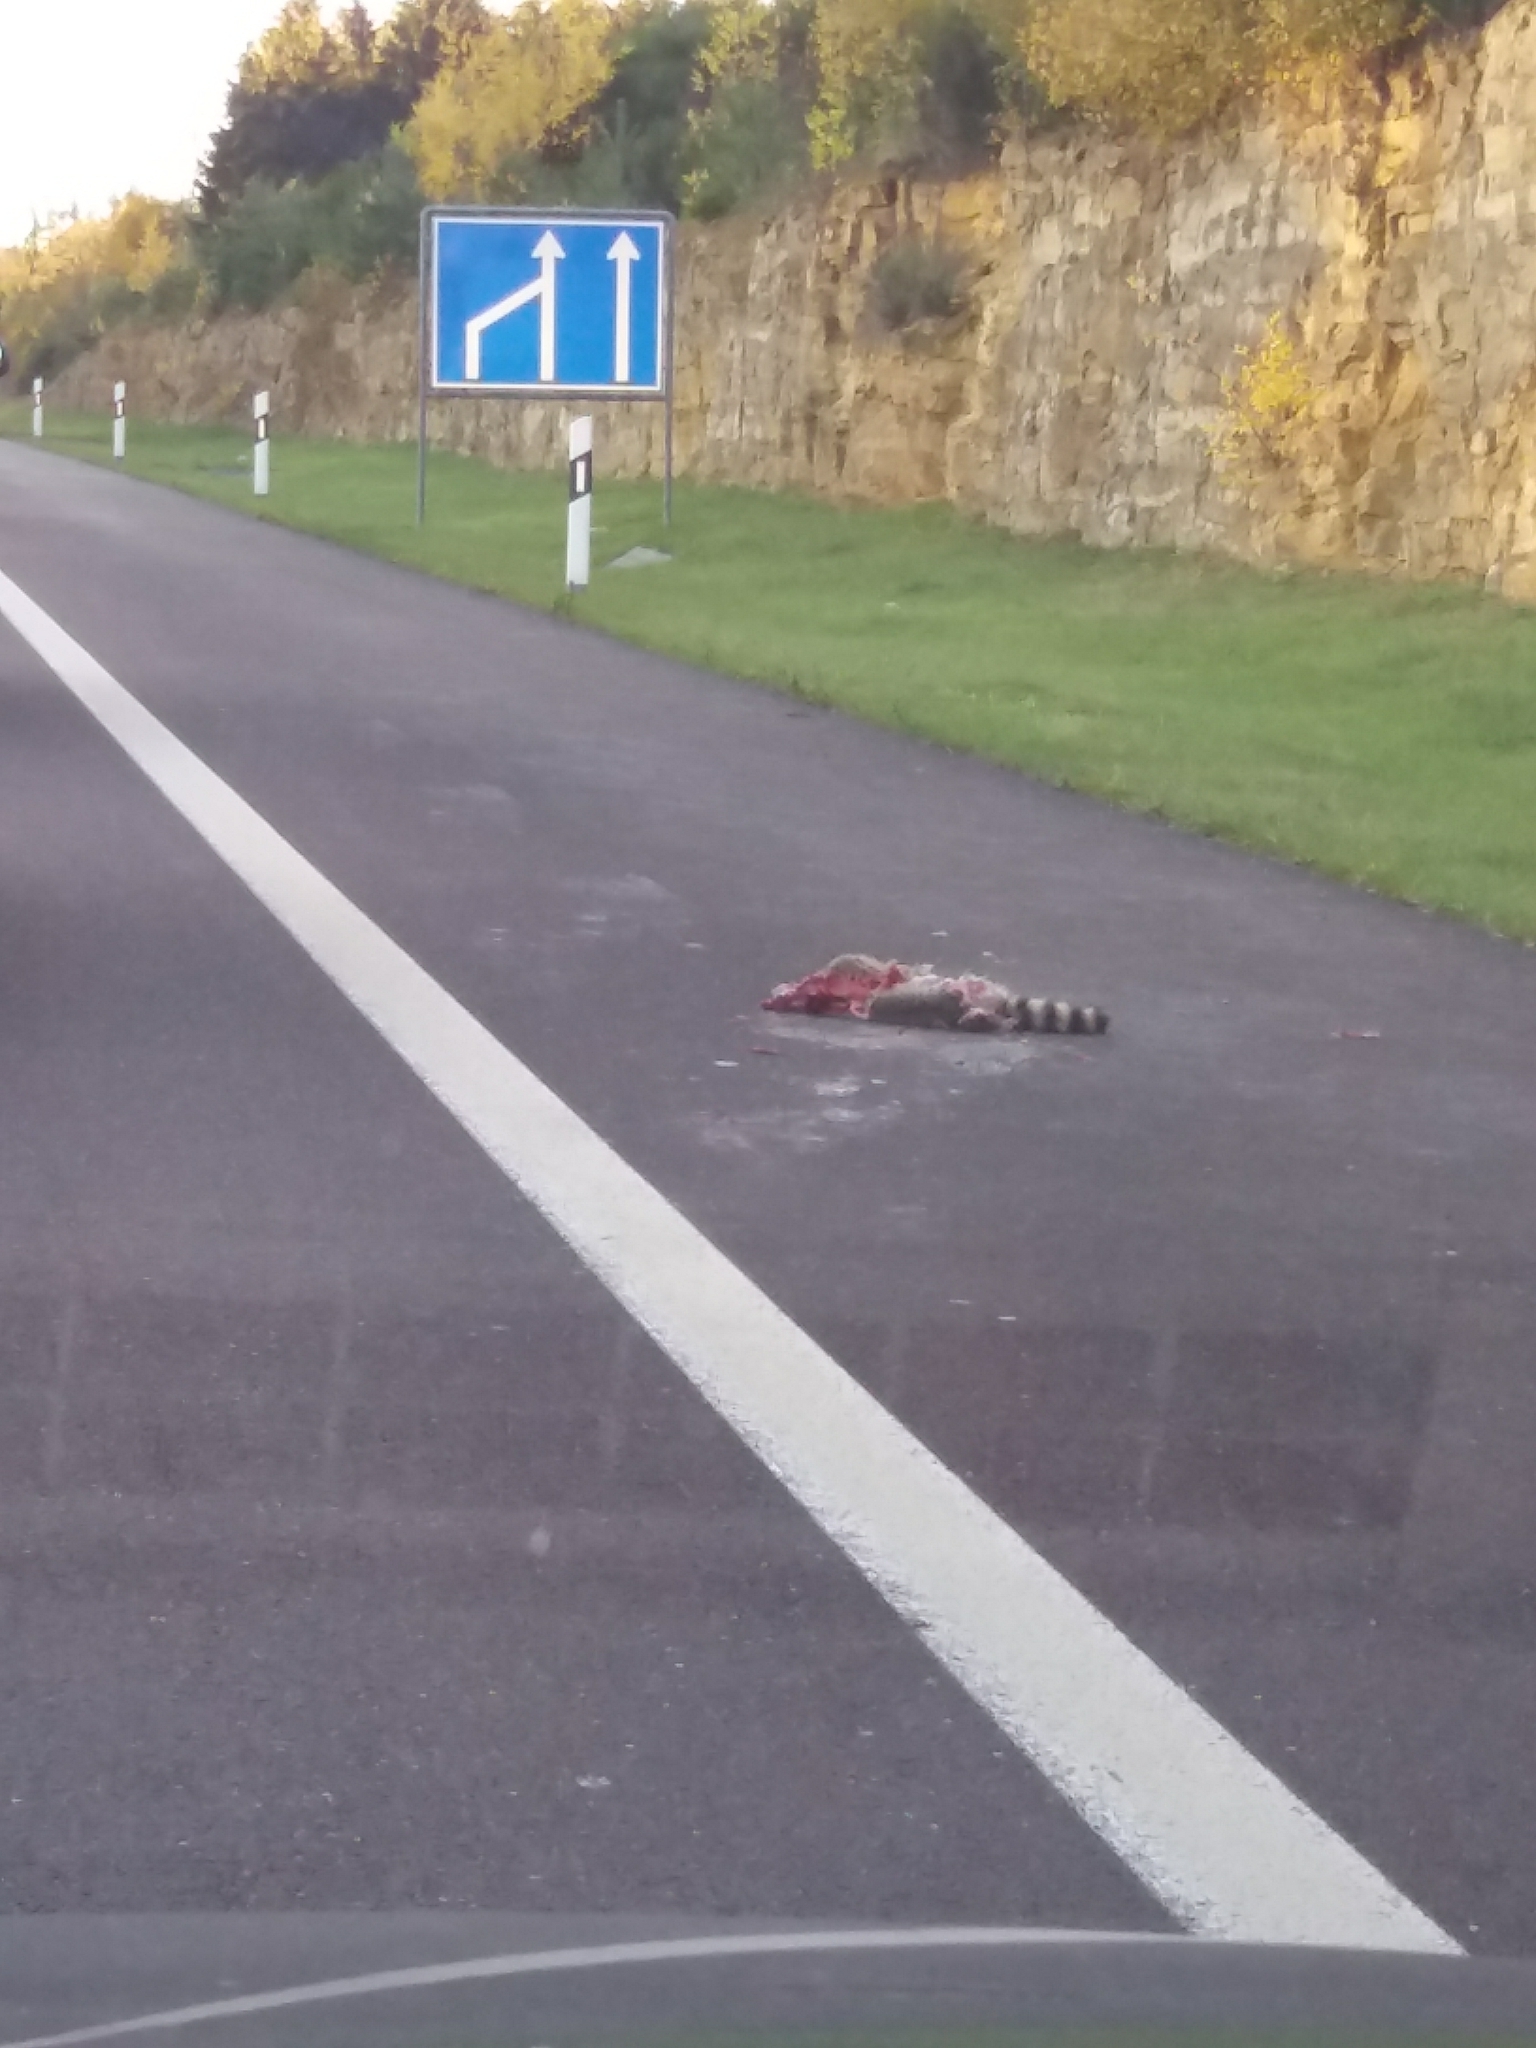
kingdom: Animalia
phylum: Chordata
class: Mammalia
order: Carnivora
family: Procyonidae
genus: Procyon
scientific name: Procyon lotor
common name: Raccoon
